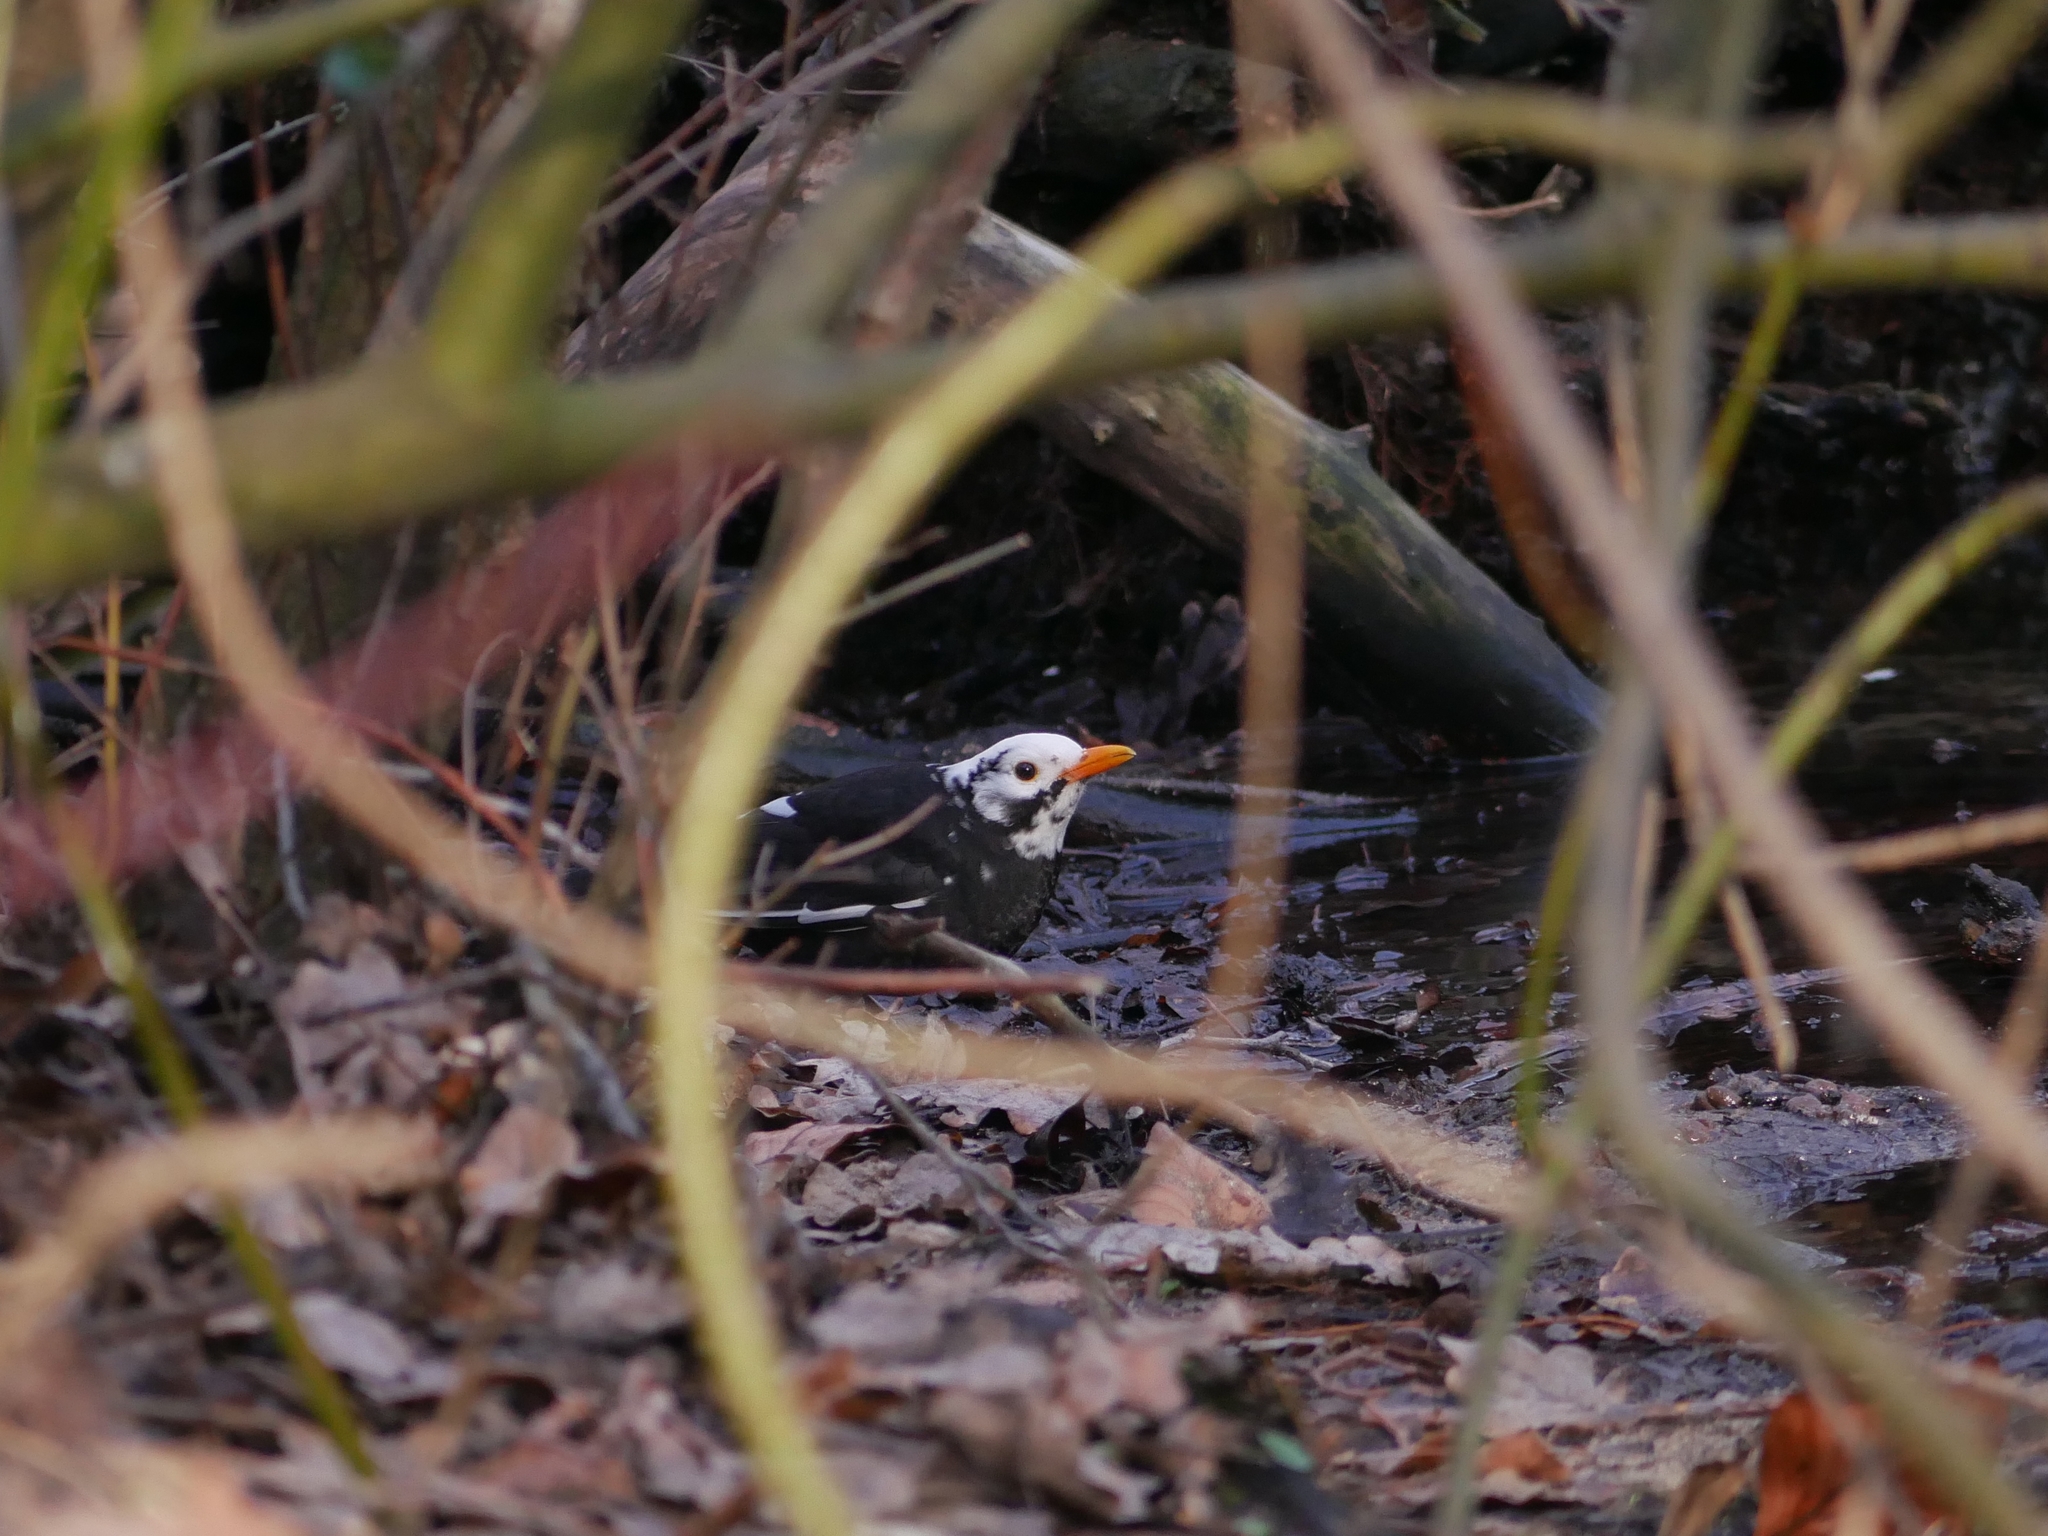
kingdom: Animalia
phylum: Chordata
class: Aves
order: Passeriformes
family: Turdidae
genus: Turdus
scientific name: Turdus merula
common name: Common blackbird
